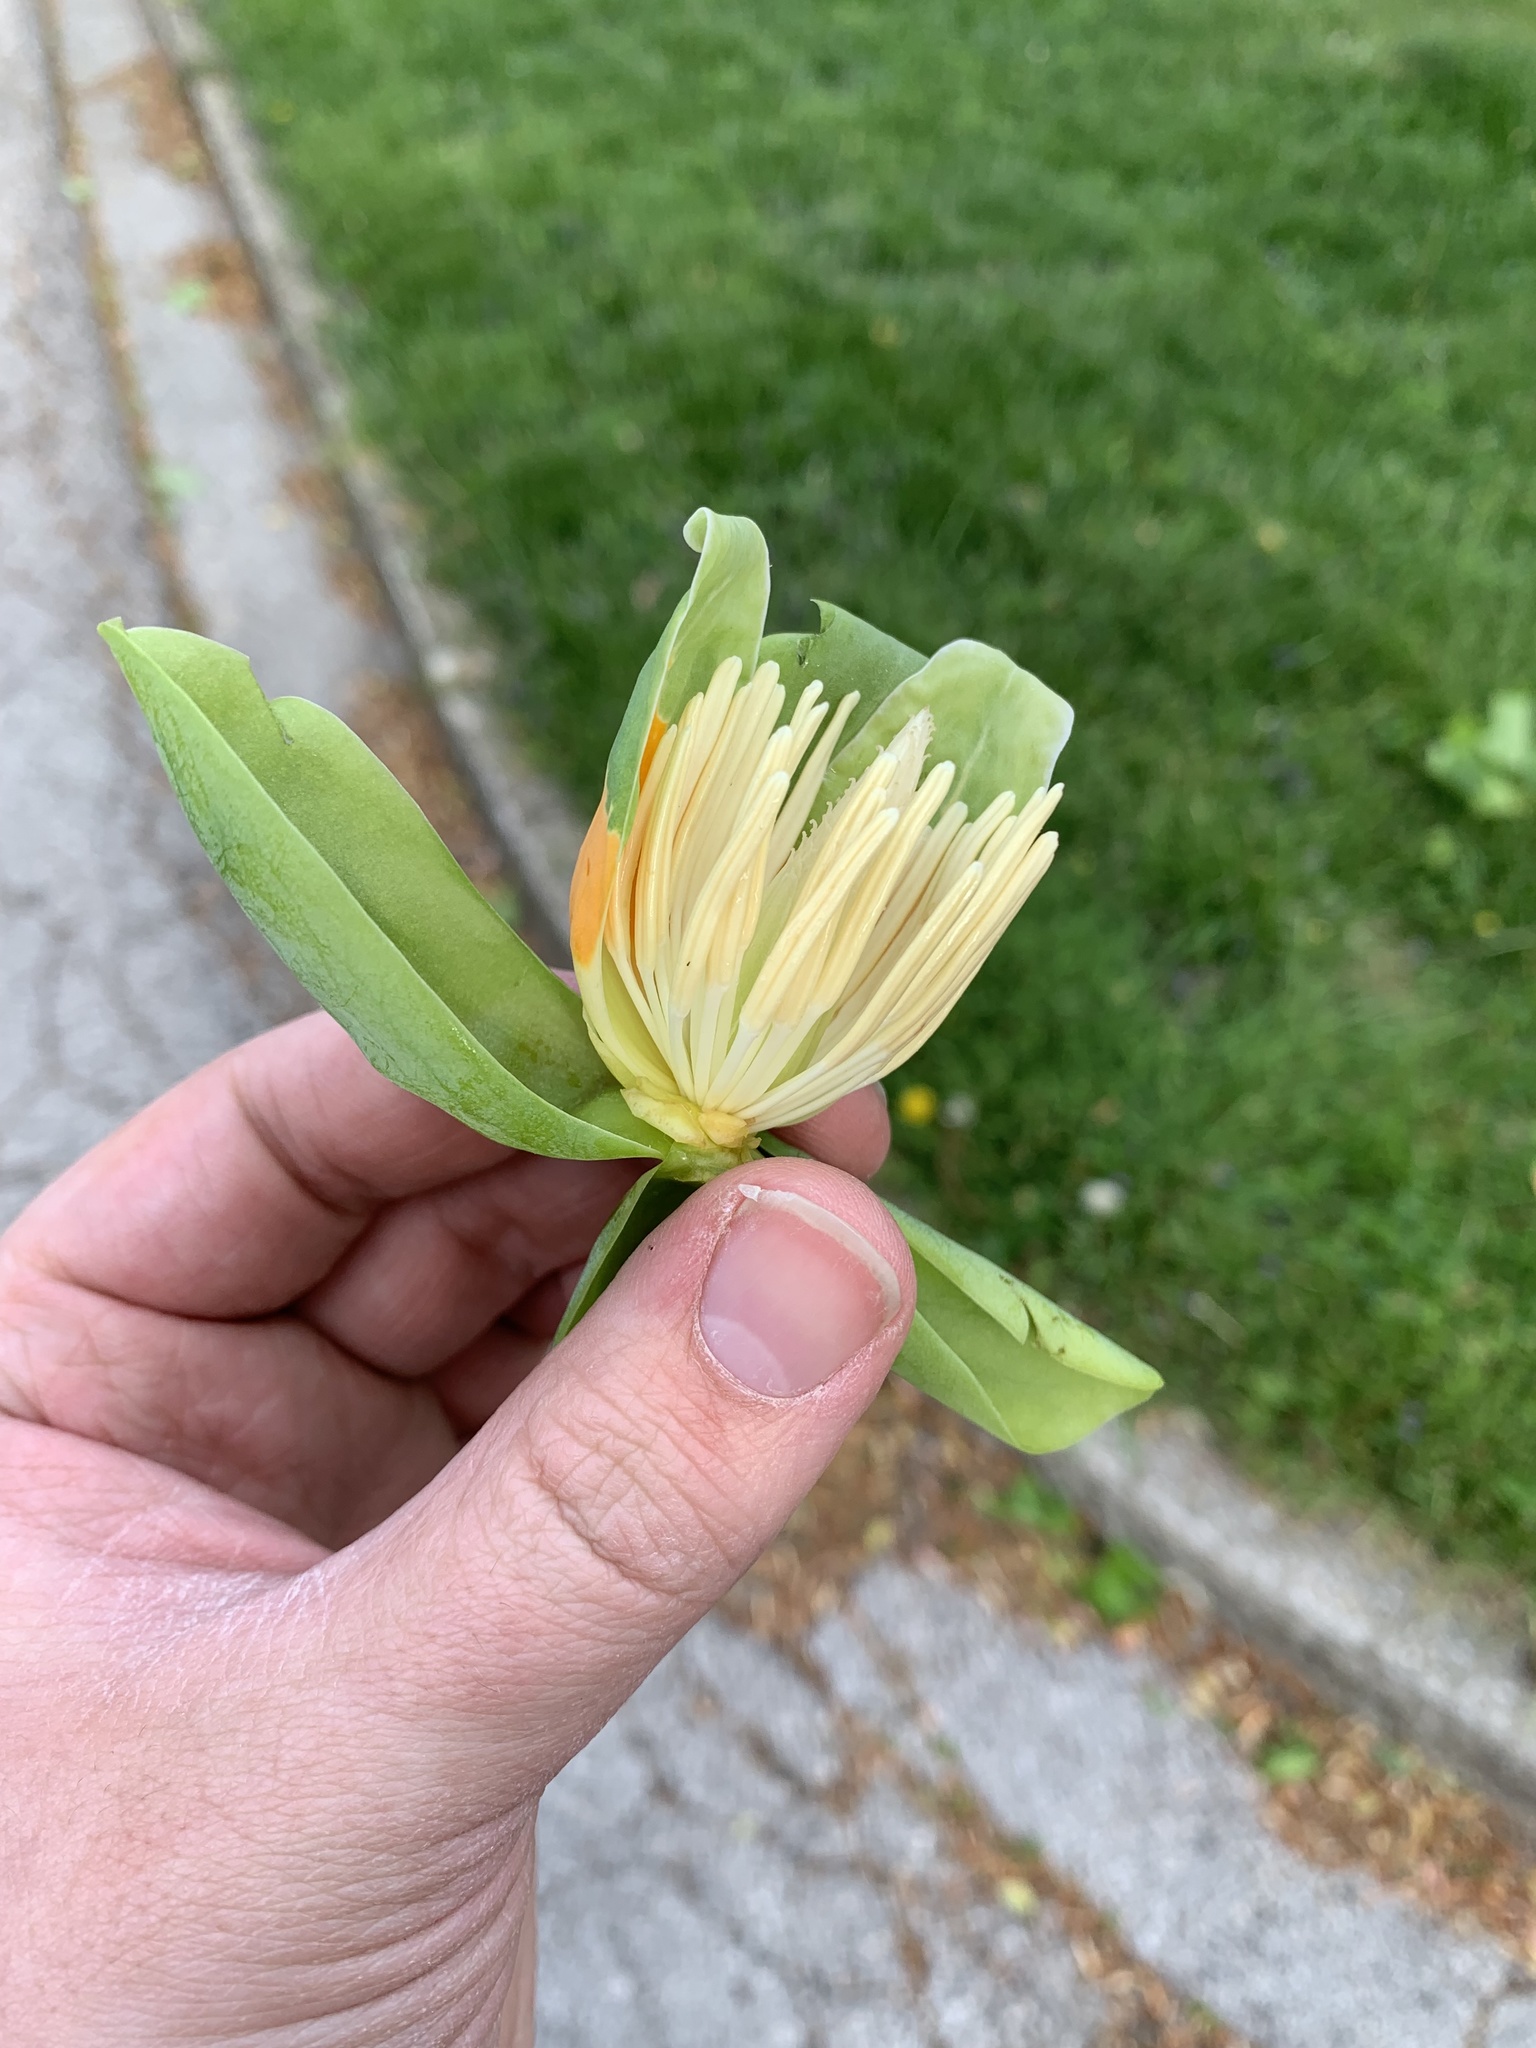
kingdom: Plantae
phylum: Tracheophyta
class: Magnoliopsida
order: Magnoliales
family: Magnoliaceae
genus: Liriodendron
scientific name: Liriodendron tulipifera
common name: Tulip tree
